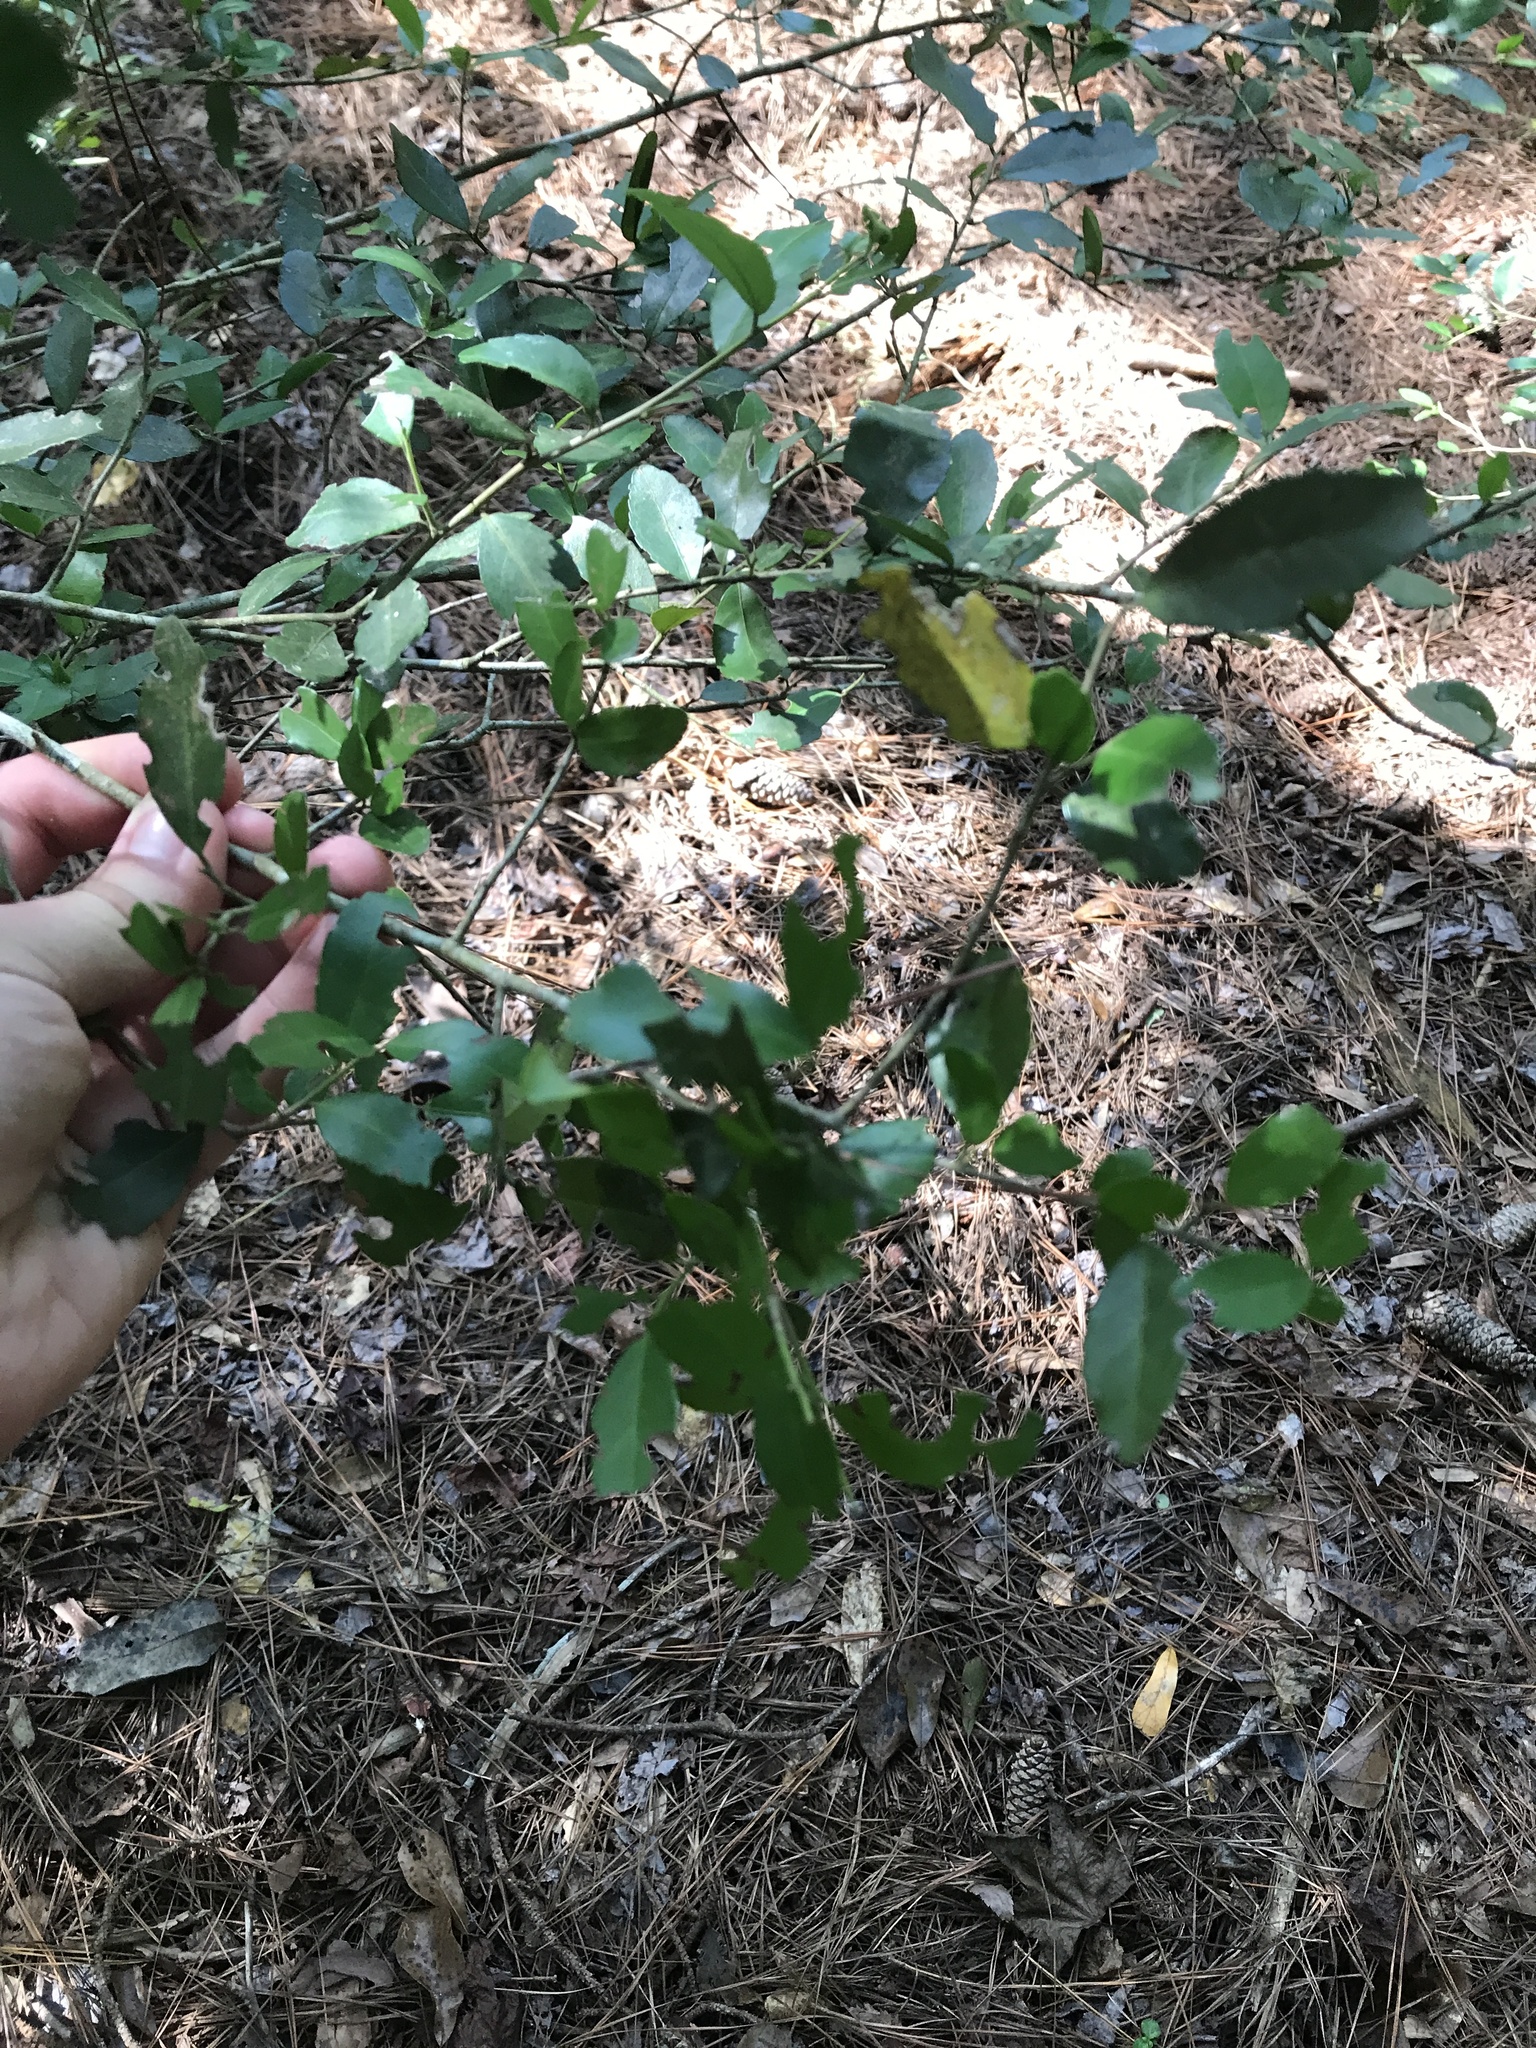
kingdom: Plantae
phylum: Tracheophyta
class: Magnoliopsida
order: Aquifoliales
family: Aquifoliaceae
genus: Ilex
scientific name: Ilex vomitoria
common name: Yaupon holly
